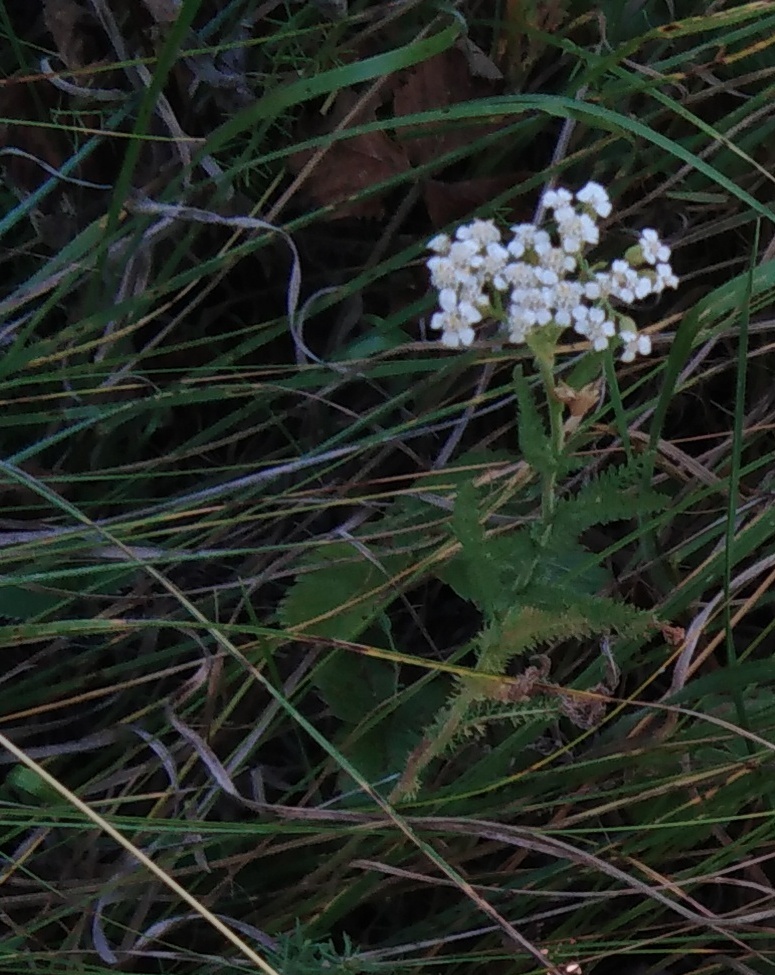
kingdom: Plantae
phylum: Tracheophyta
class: Magnoliopsida
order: Asterales
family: Asteraceae
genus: Achillea
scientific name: Achillea millefolium
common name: Yarrow
